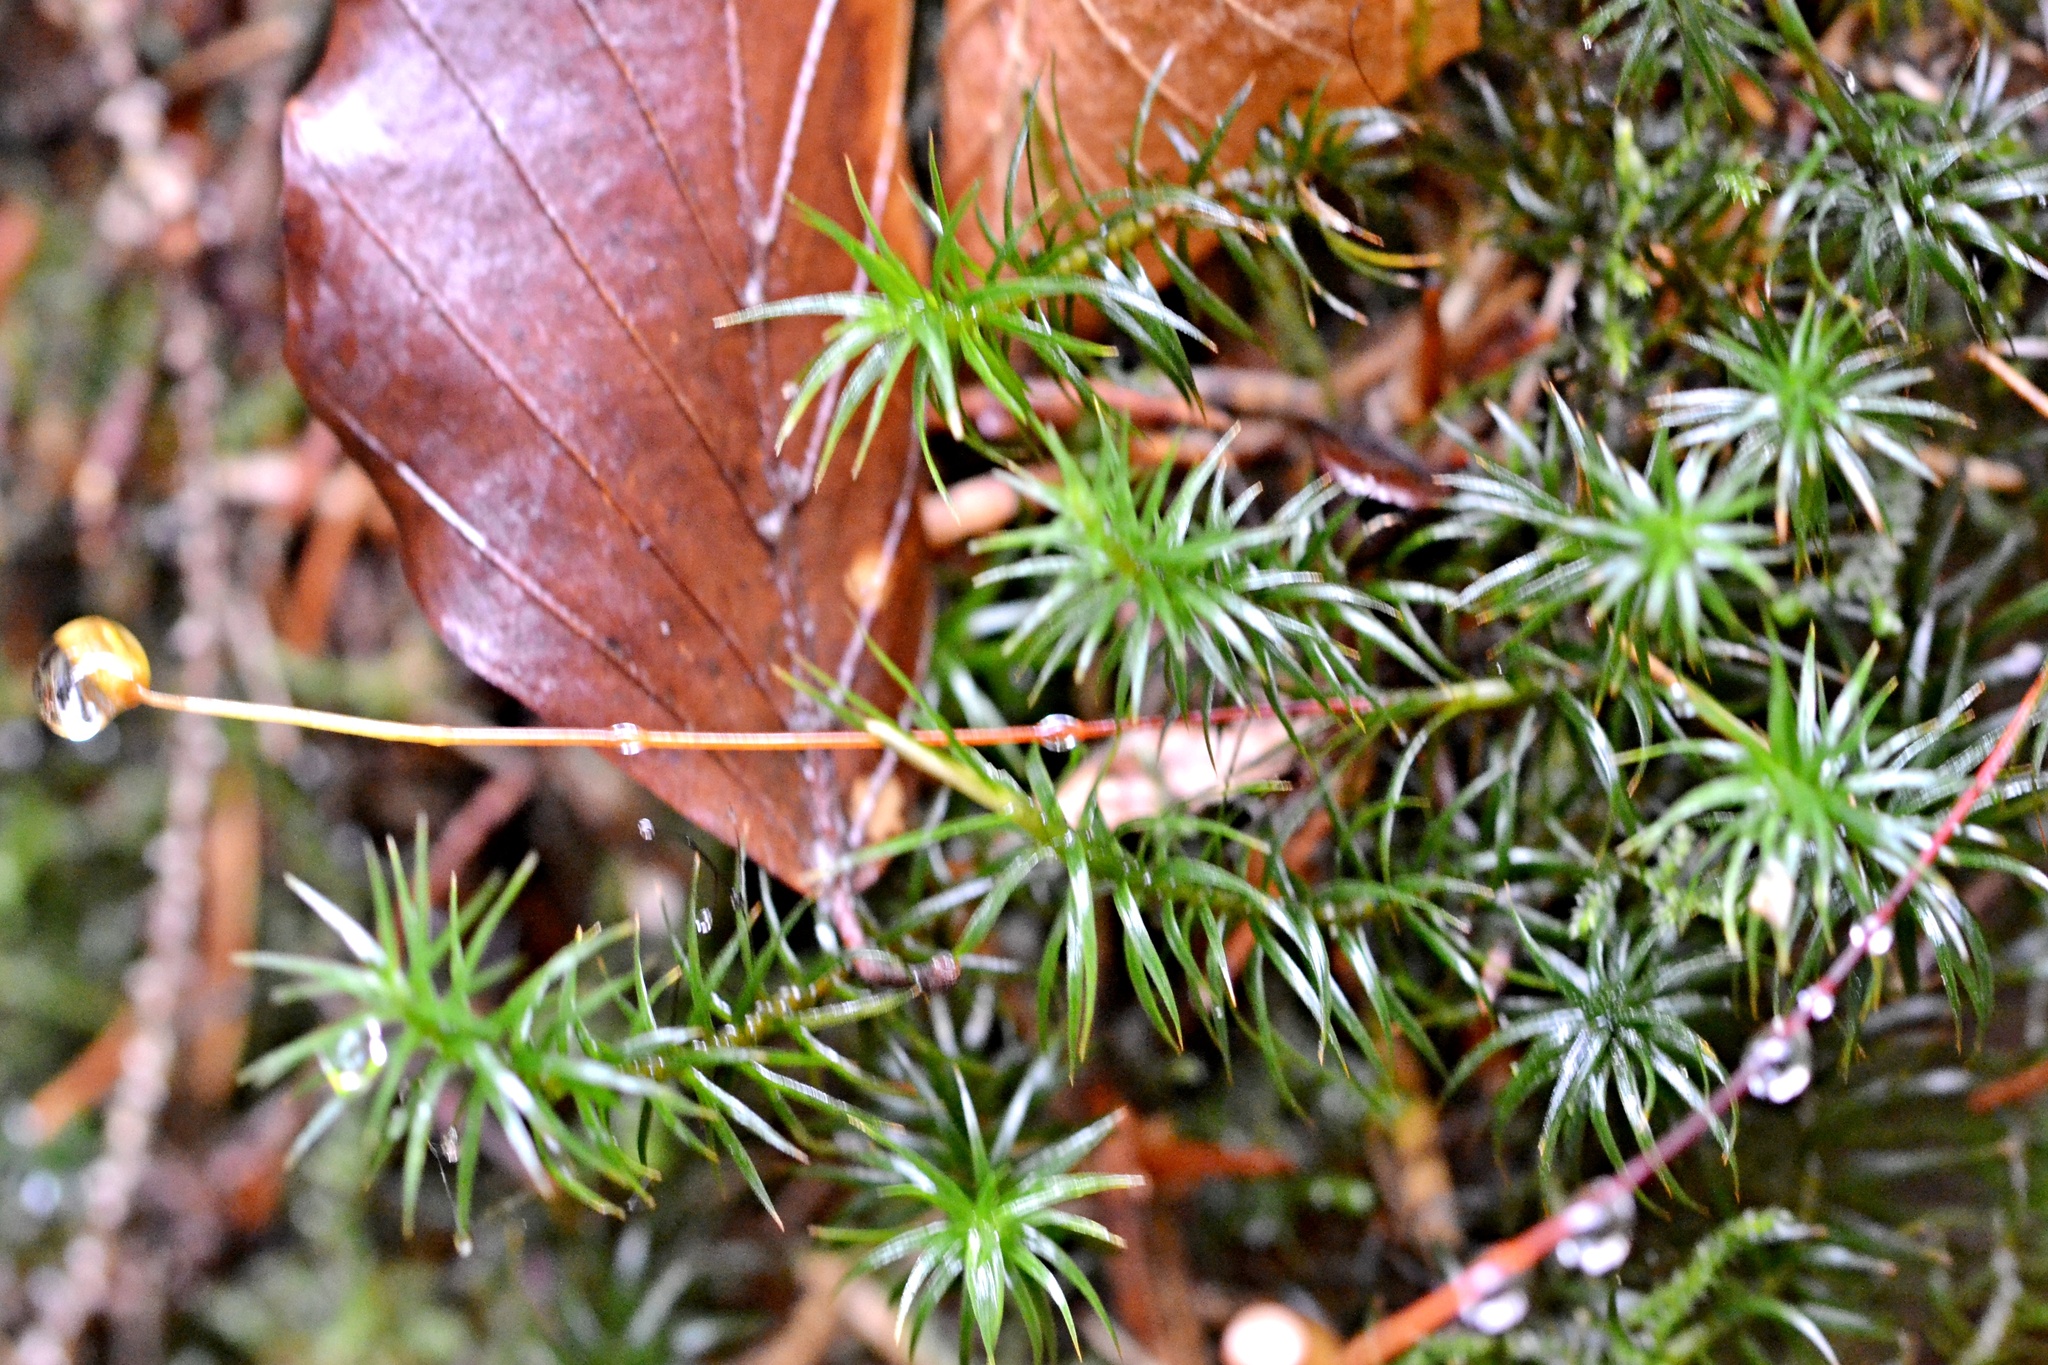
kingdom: Plantae
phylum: Bryophyta
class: Polytrichopsida
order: Polytrichales
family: Polytrichaceae
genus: Polytrichum
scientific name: Polytrichum commune
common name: Common haircap
